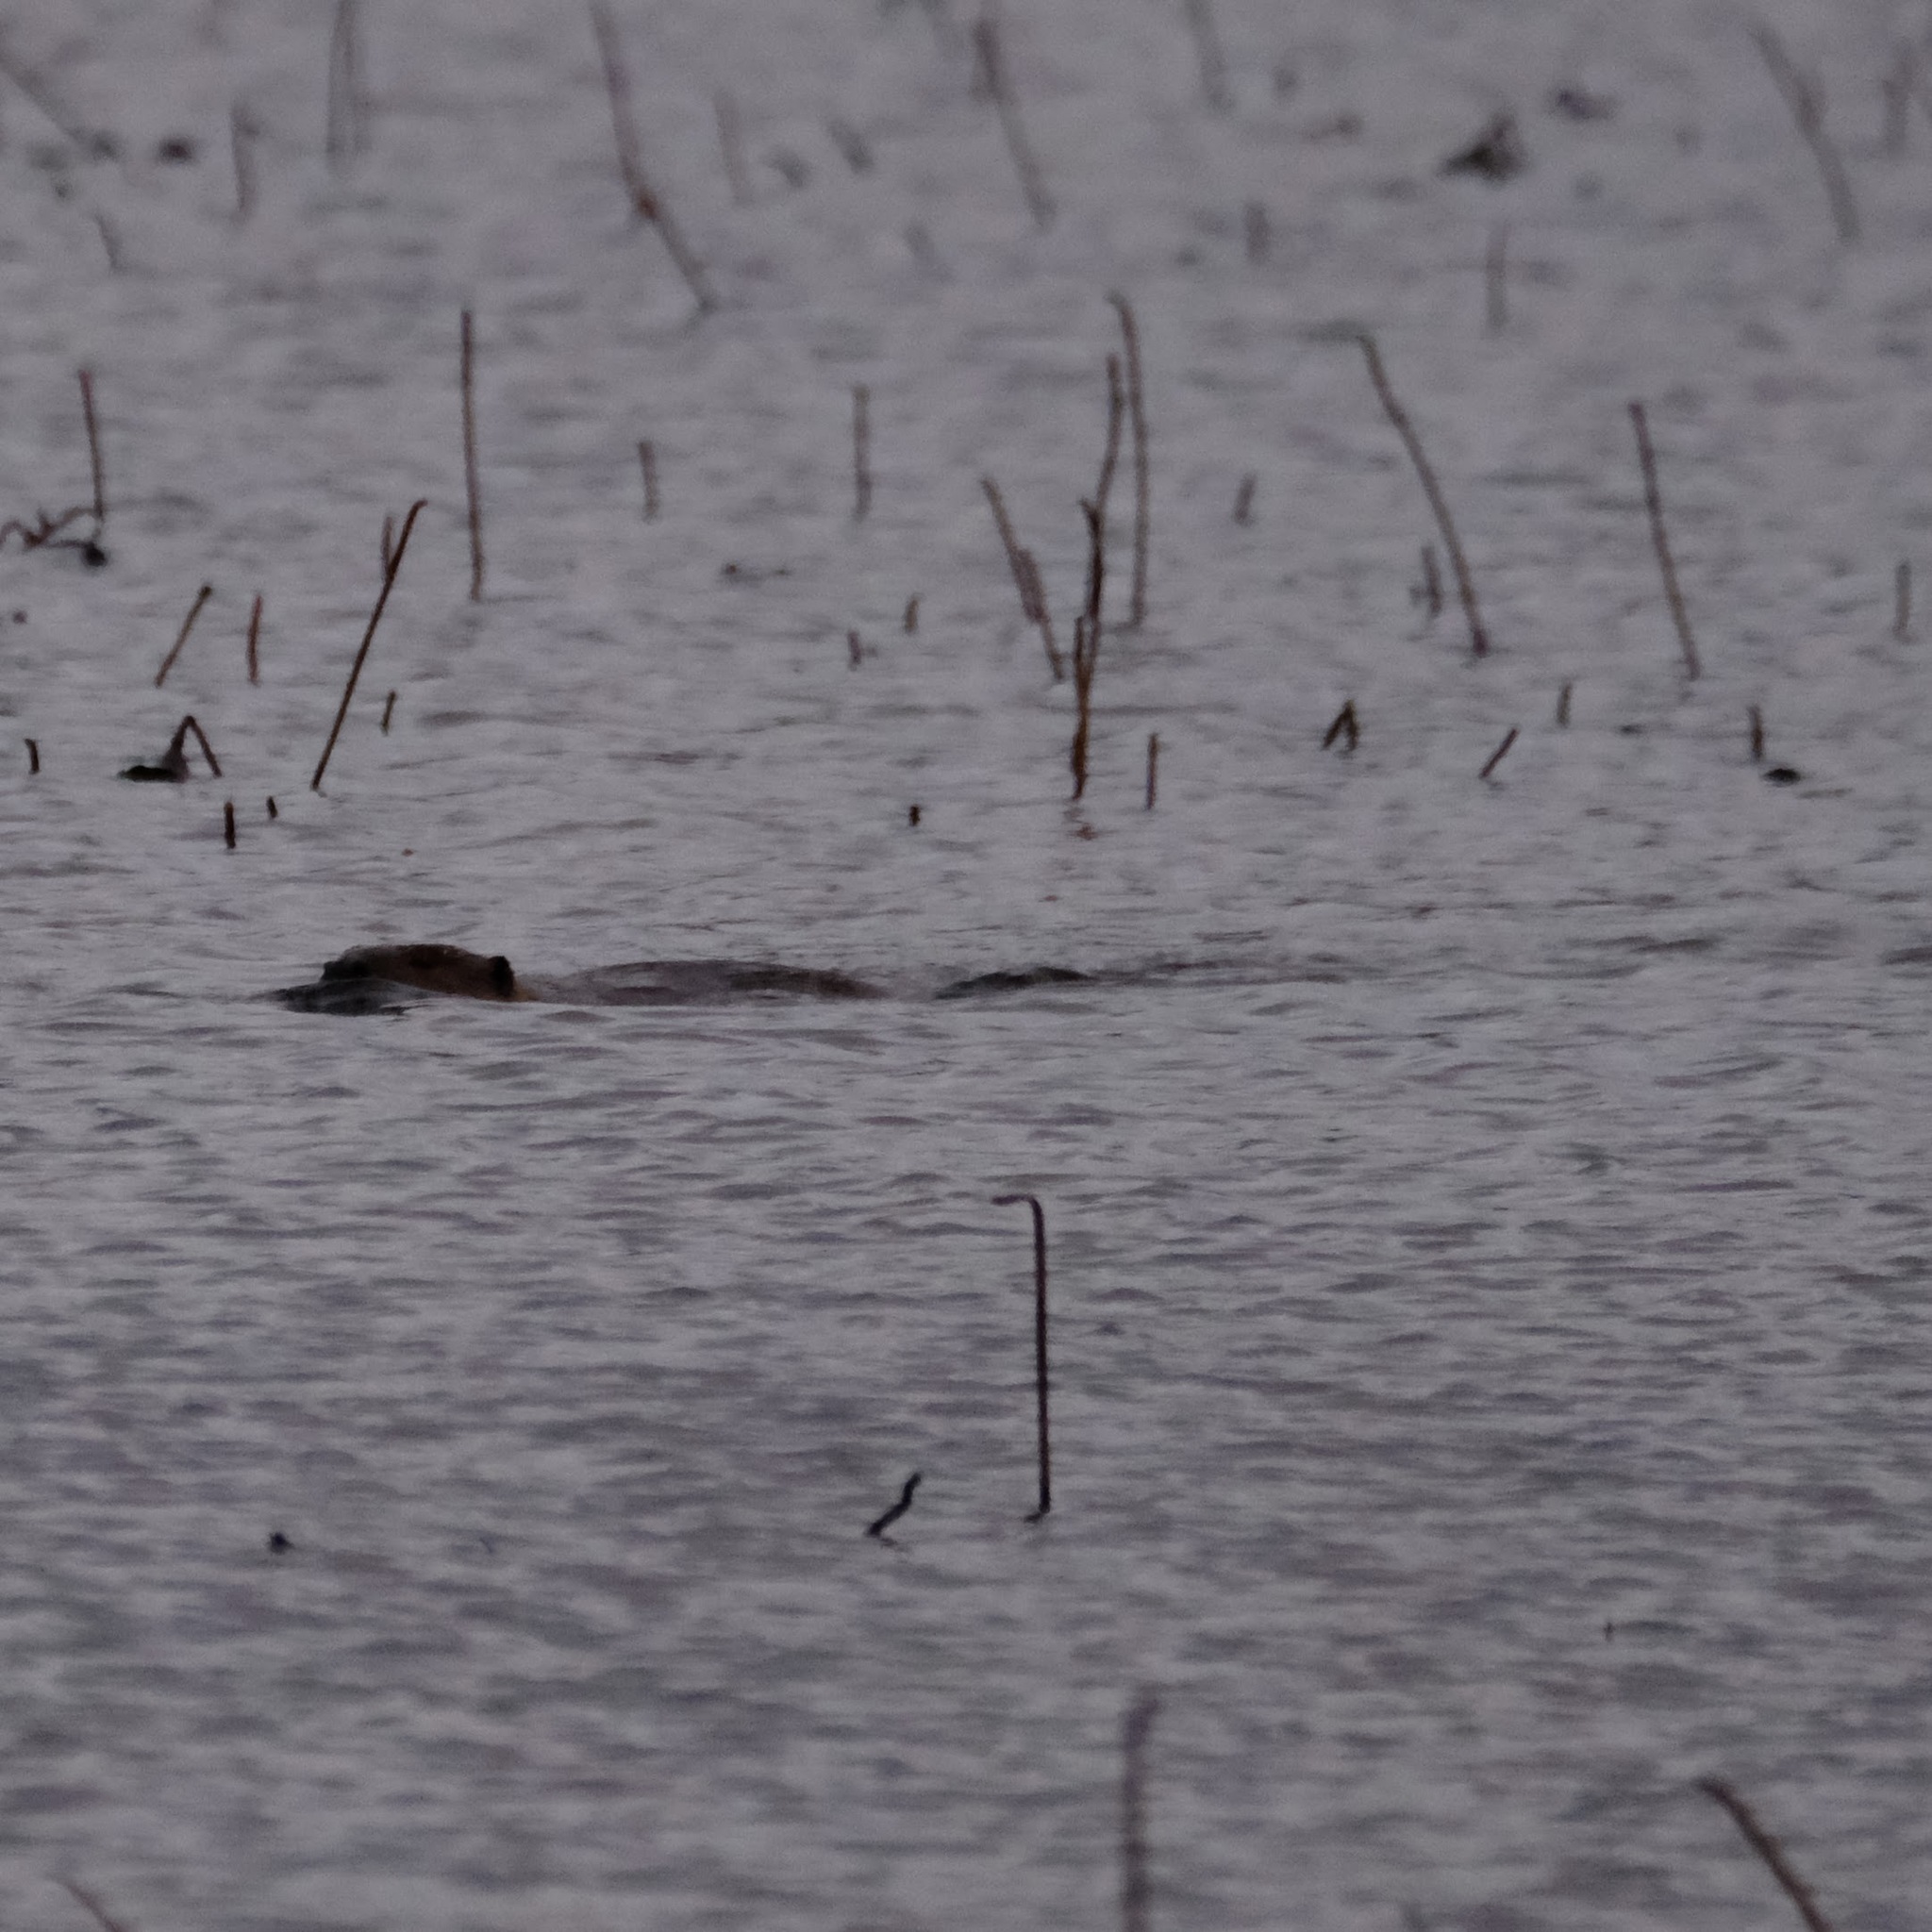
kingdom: Animalia
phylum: Chordata
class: Mammalia
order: Rodentia
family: Castoridae
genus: Castor
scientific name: Castor canadensis
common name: American beaver
